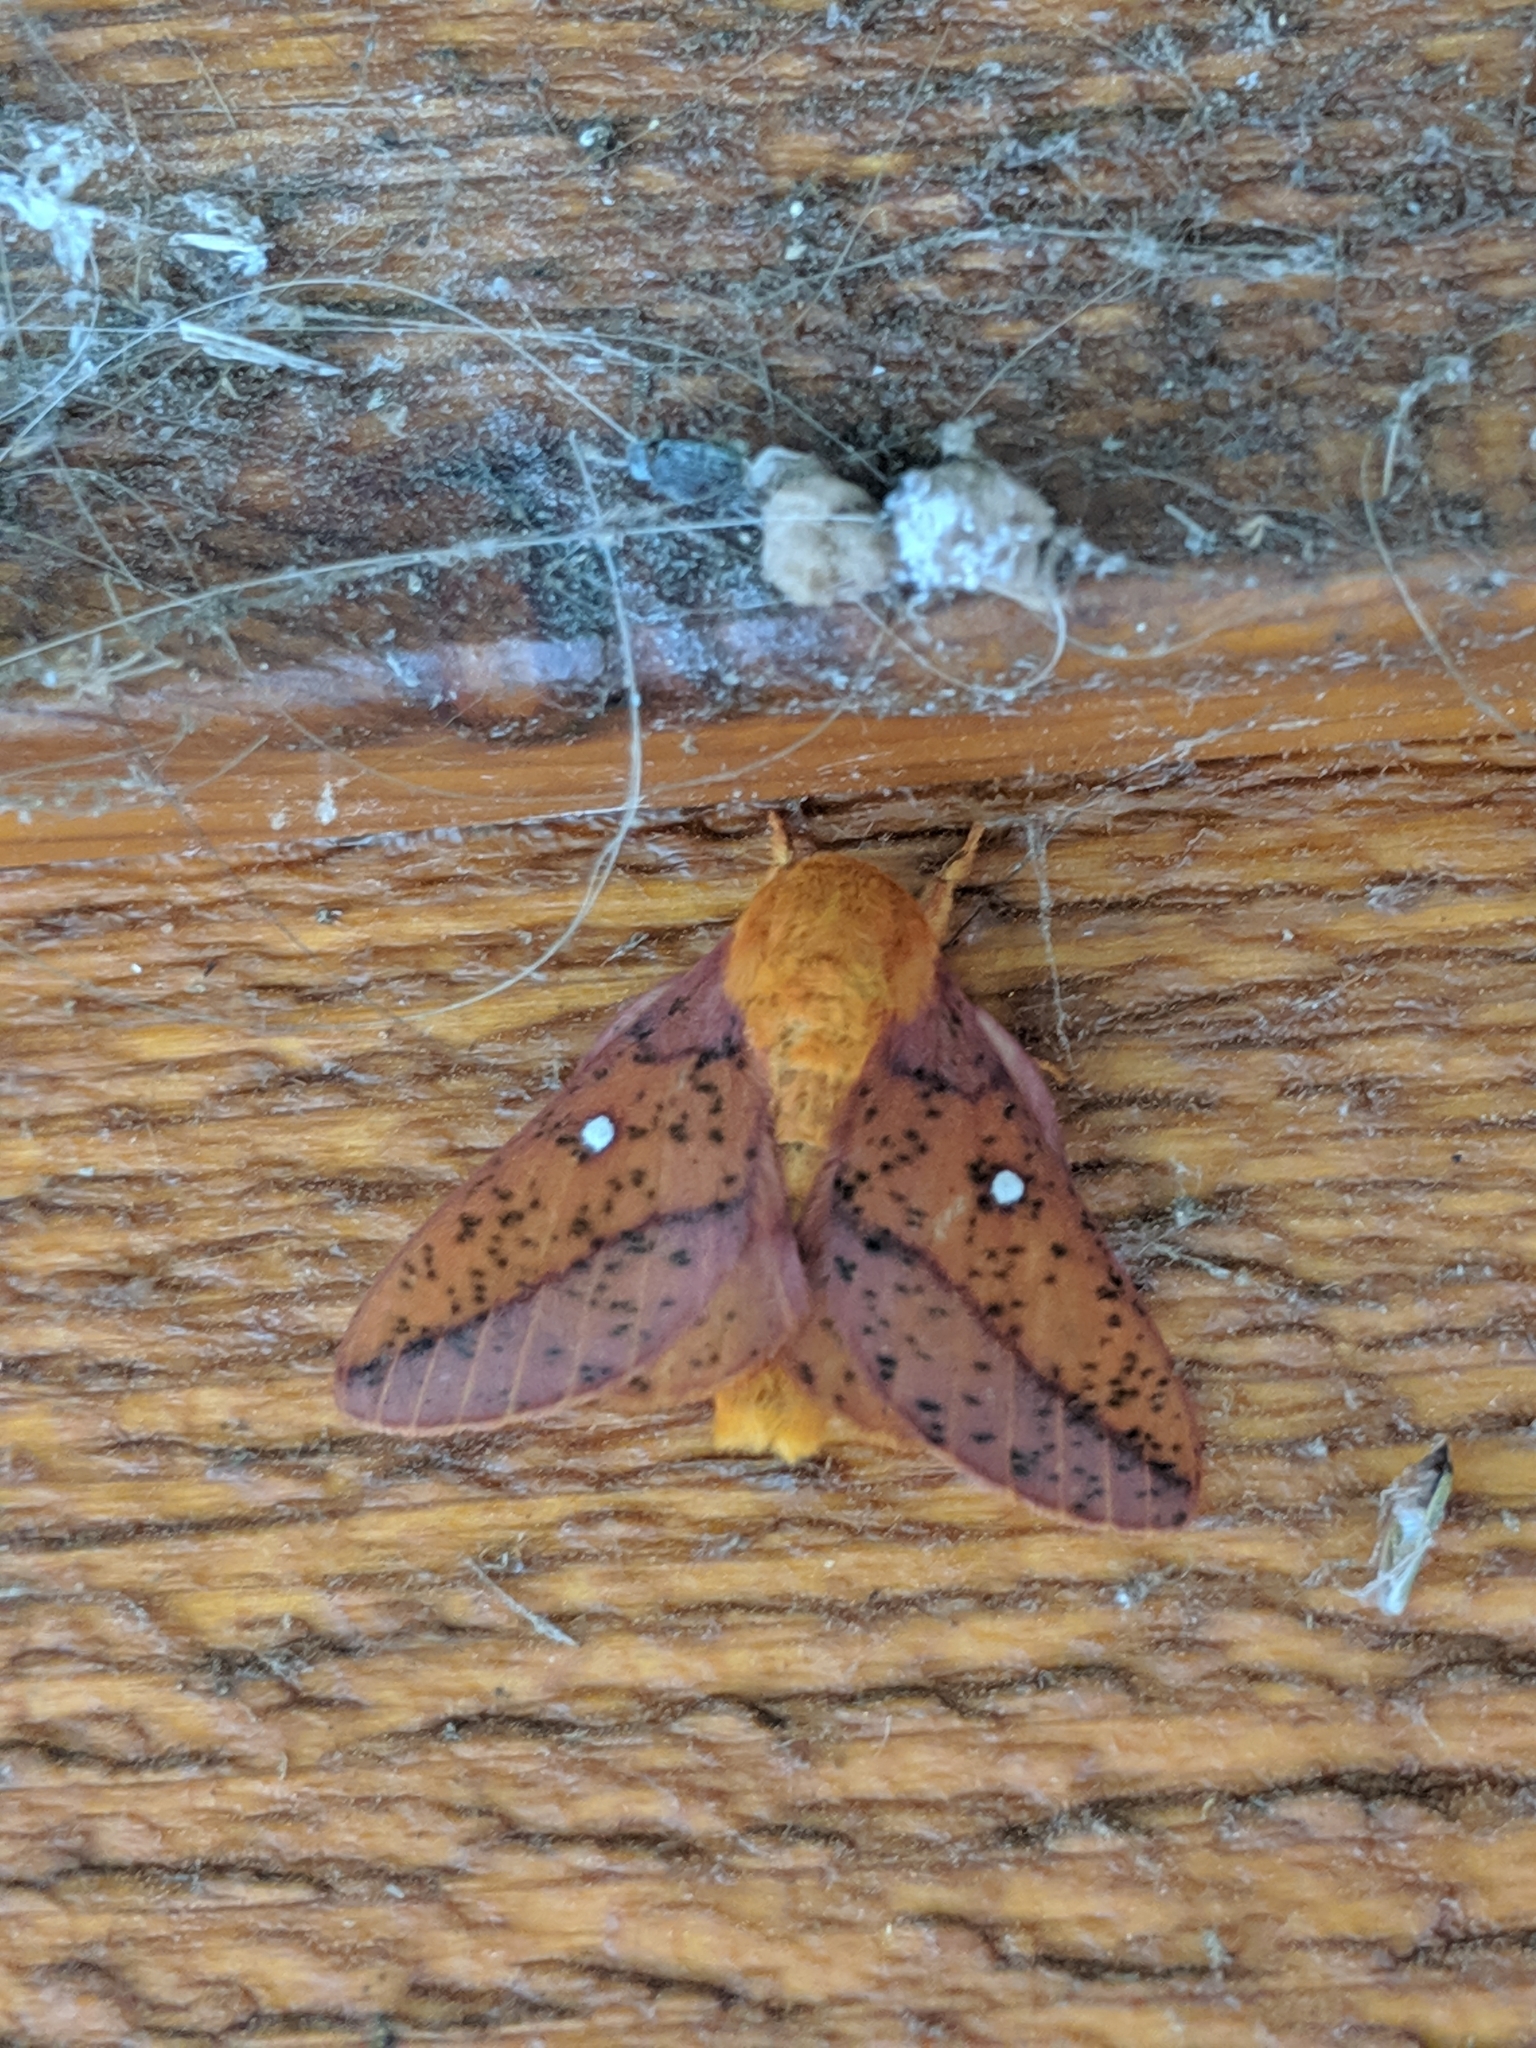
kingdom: Animalia
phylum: Arthropoda
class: Insecta
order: Lepidoptera
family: Saturniidae
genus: Anisota
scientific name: Anisota stigma
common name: Spiny oakworm moth
